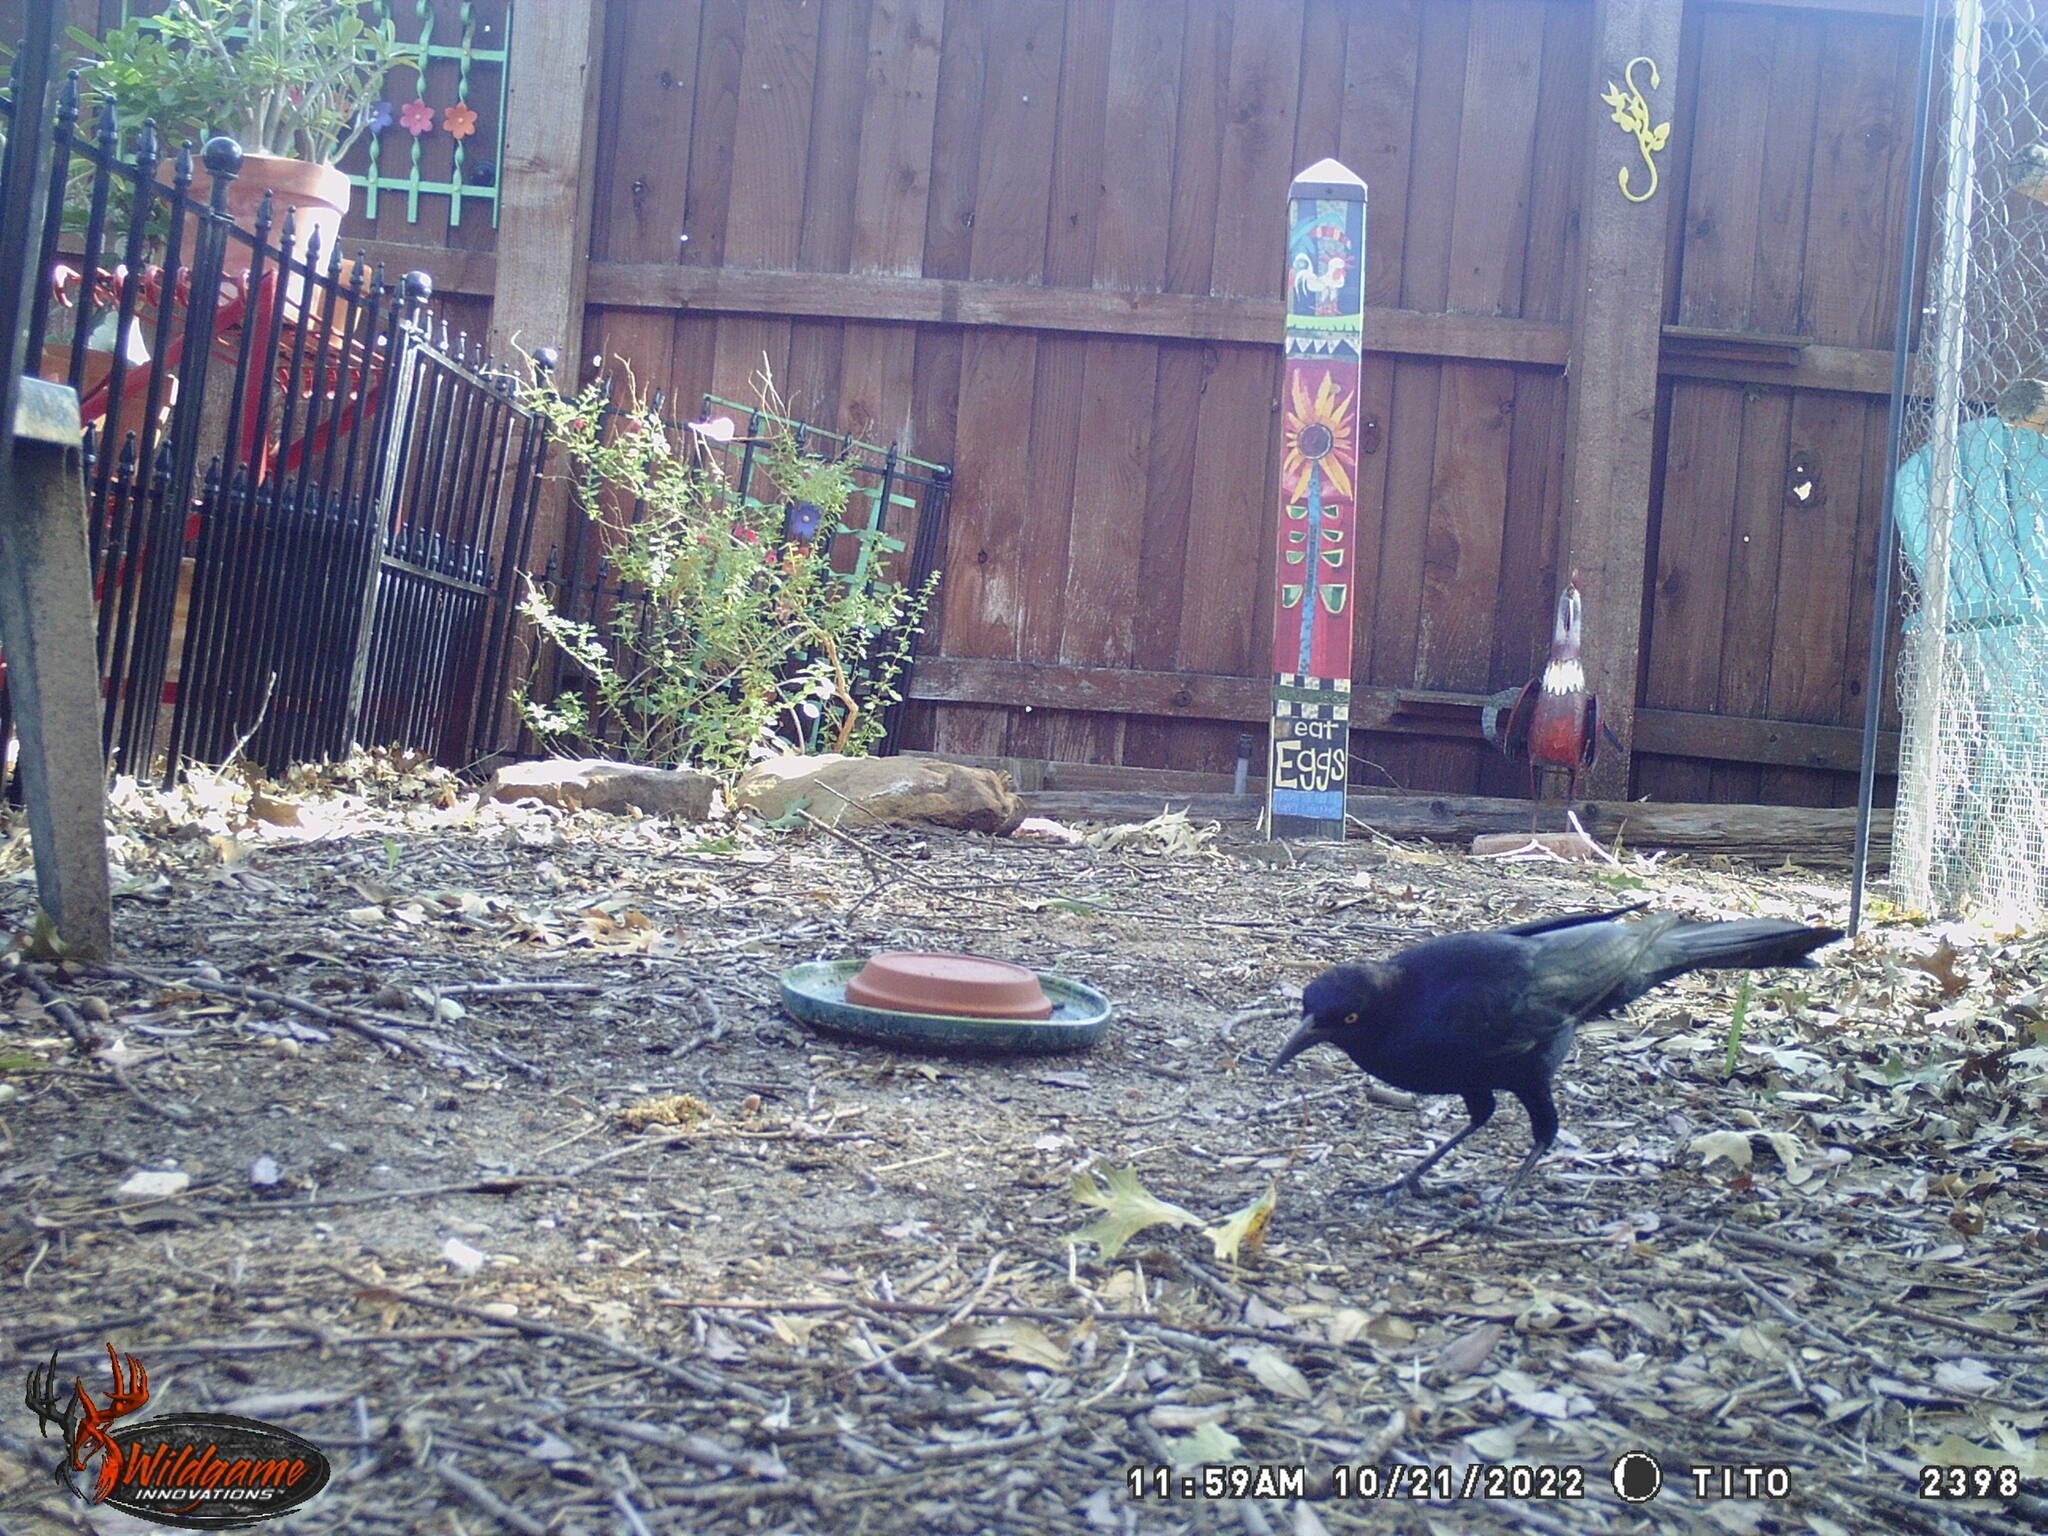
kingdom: Animalia
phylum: Chordata
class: Aves
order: Passeriformes
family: Icteridae
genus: Quiscalus
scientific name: Quiscalus mexicanus
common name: Great-tailed grackle
